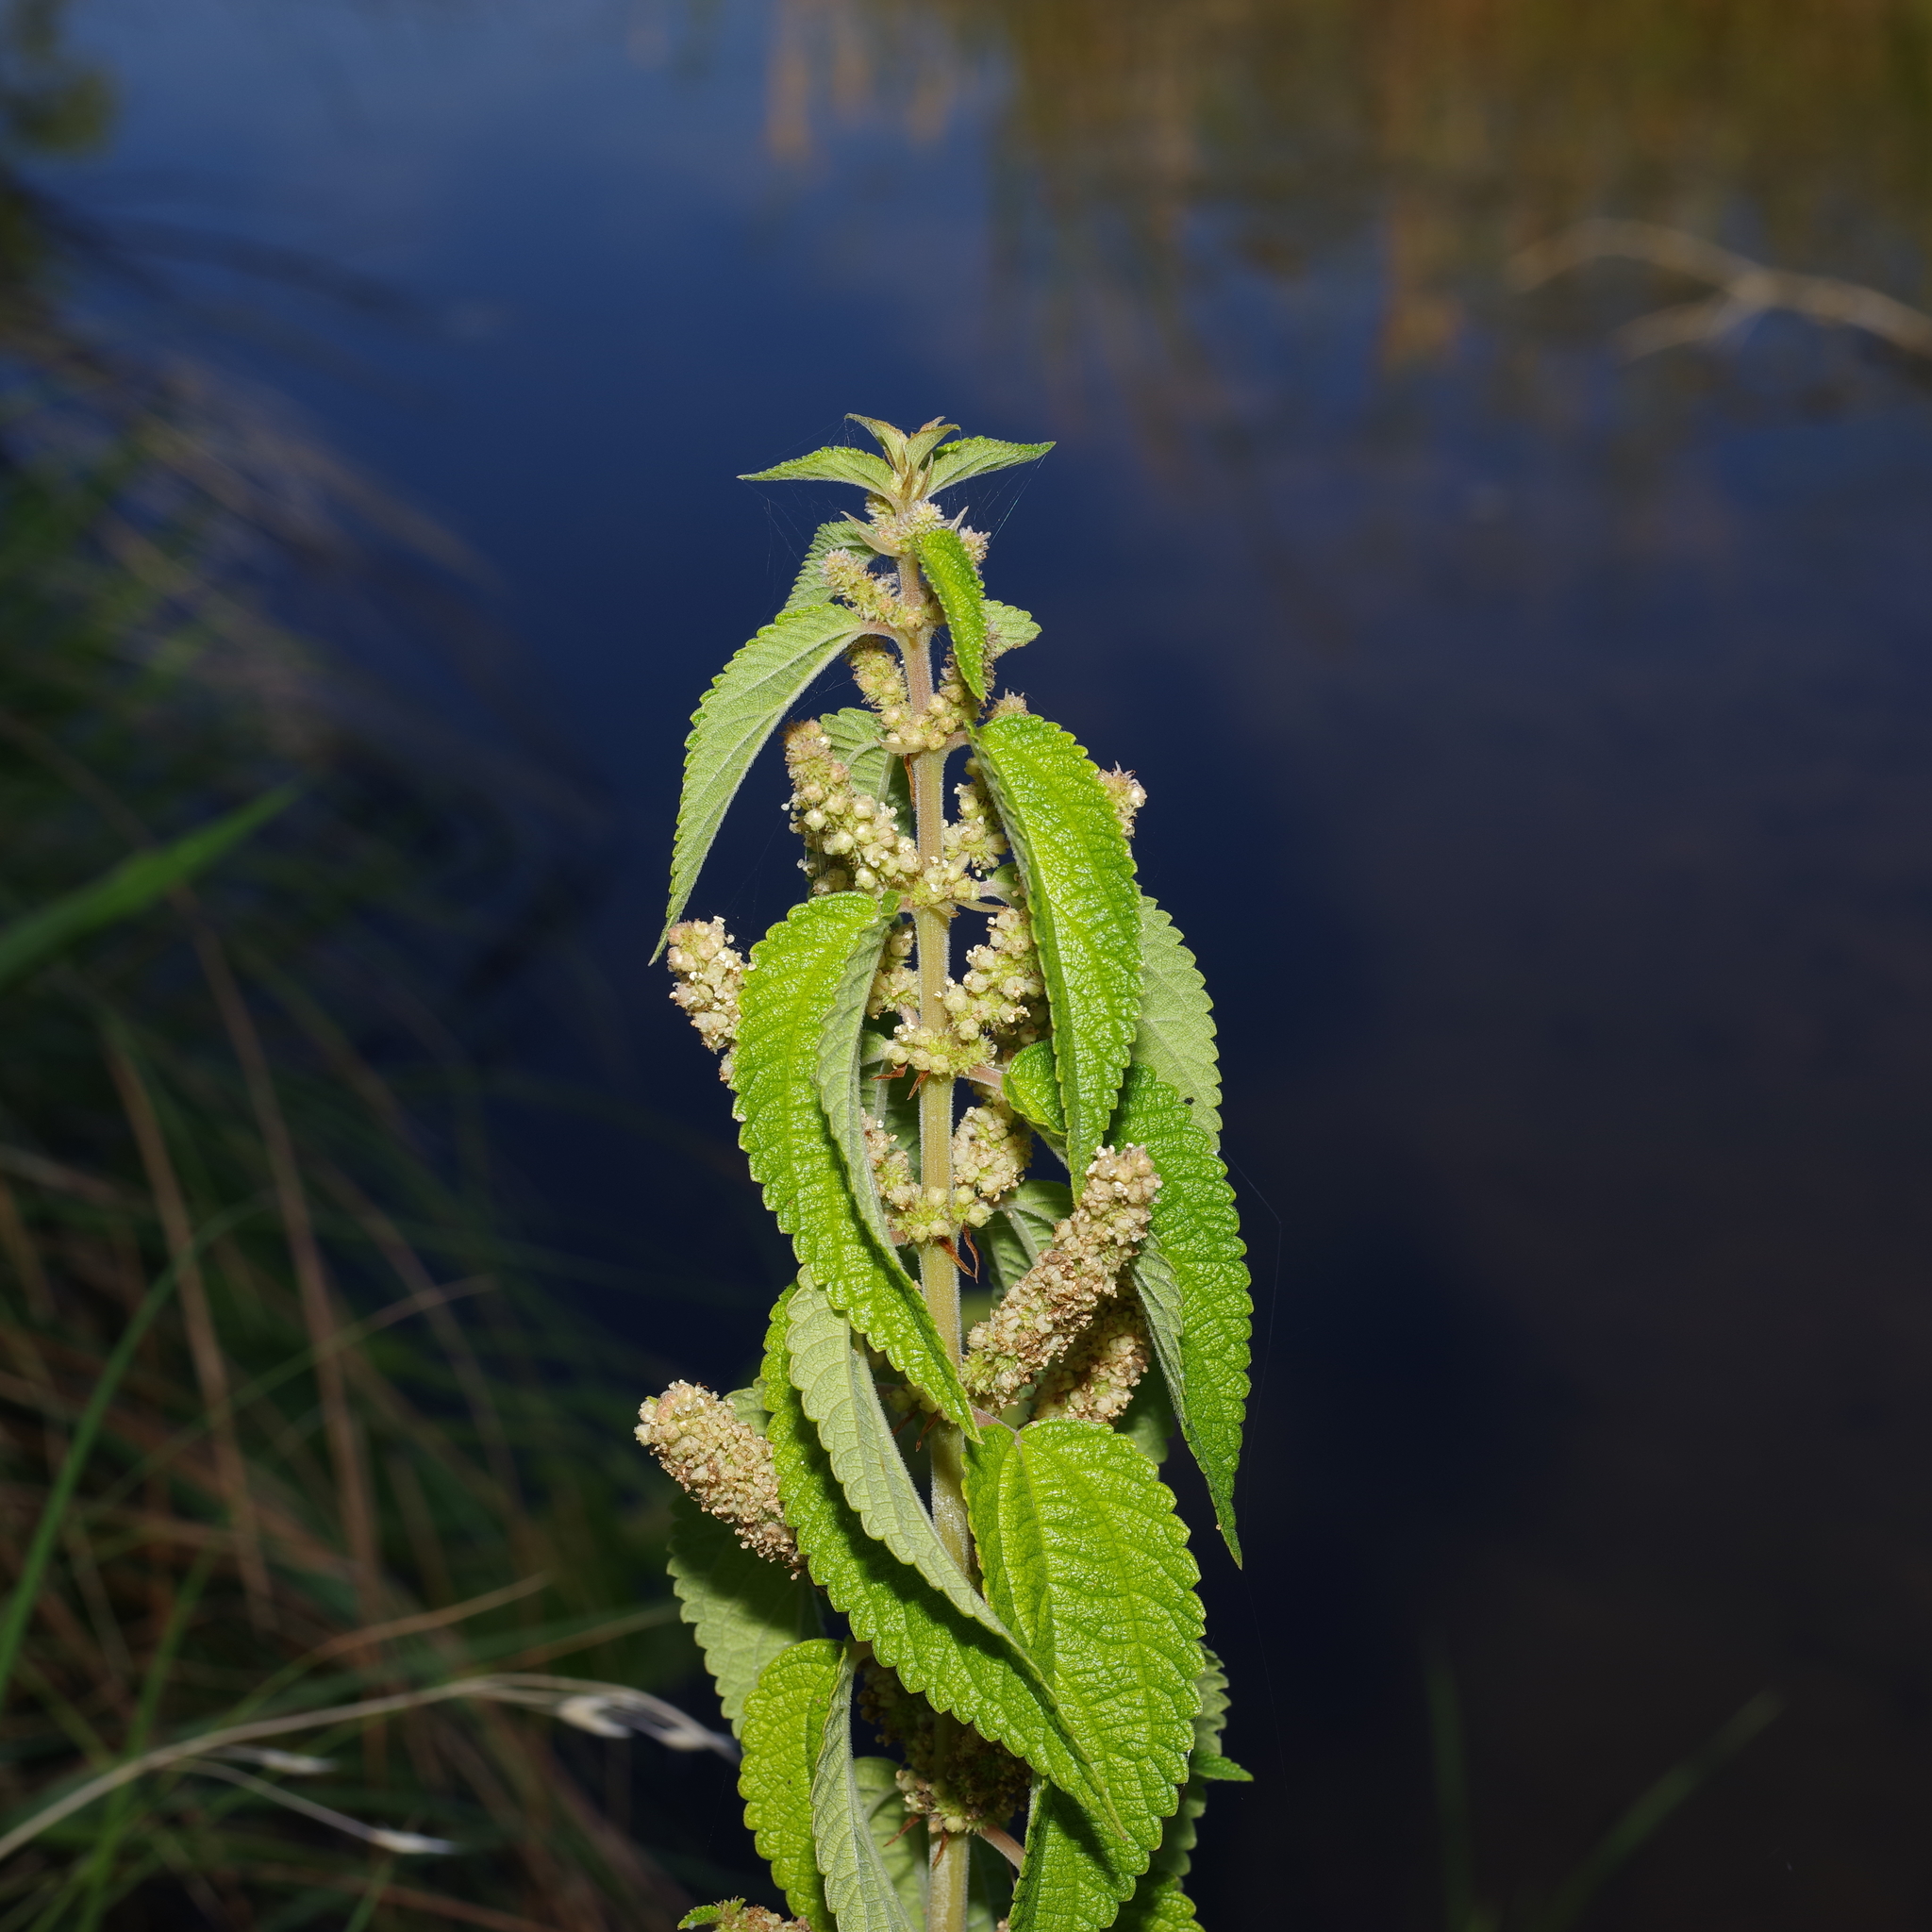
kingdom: Plantae
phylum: Tracheophyta
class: Magnoliopsida
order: Rosales
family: Urticaceae
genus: Boehmeria
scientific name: Boehmeria cylindrica
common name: Bog-hemp
